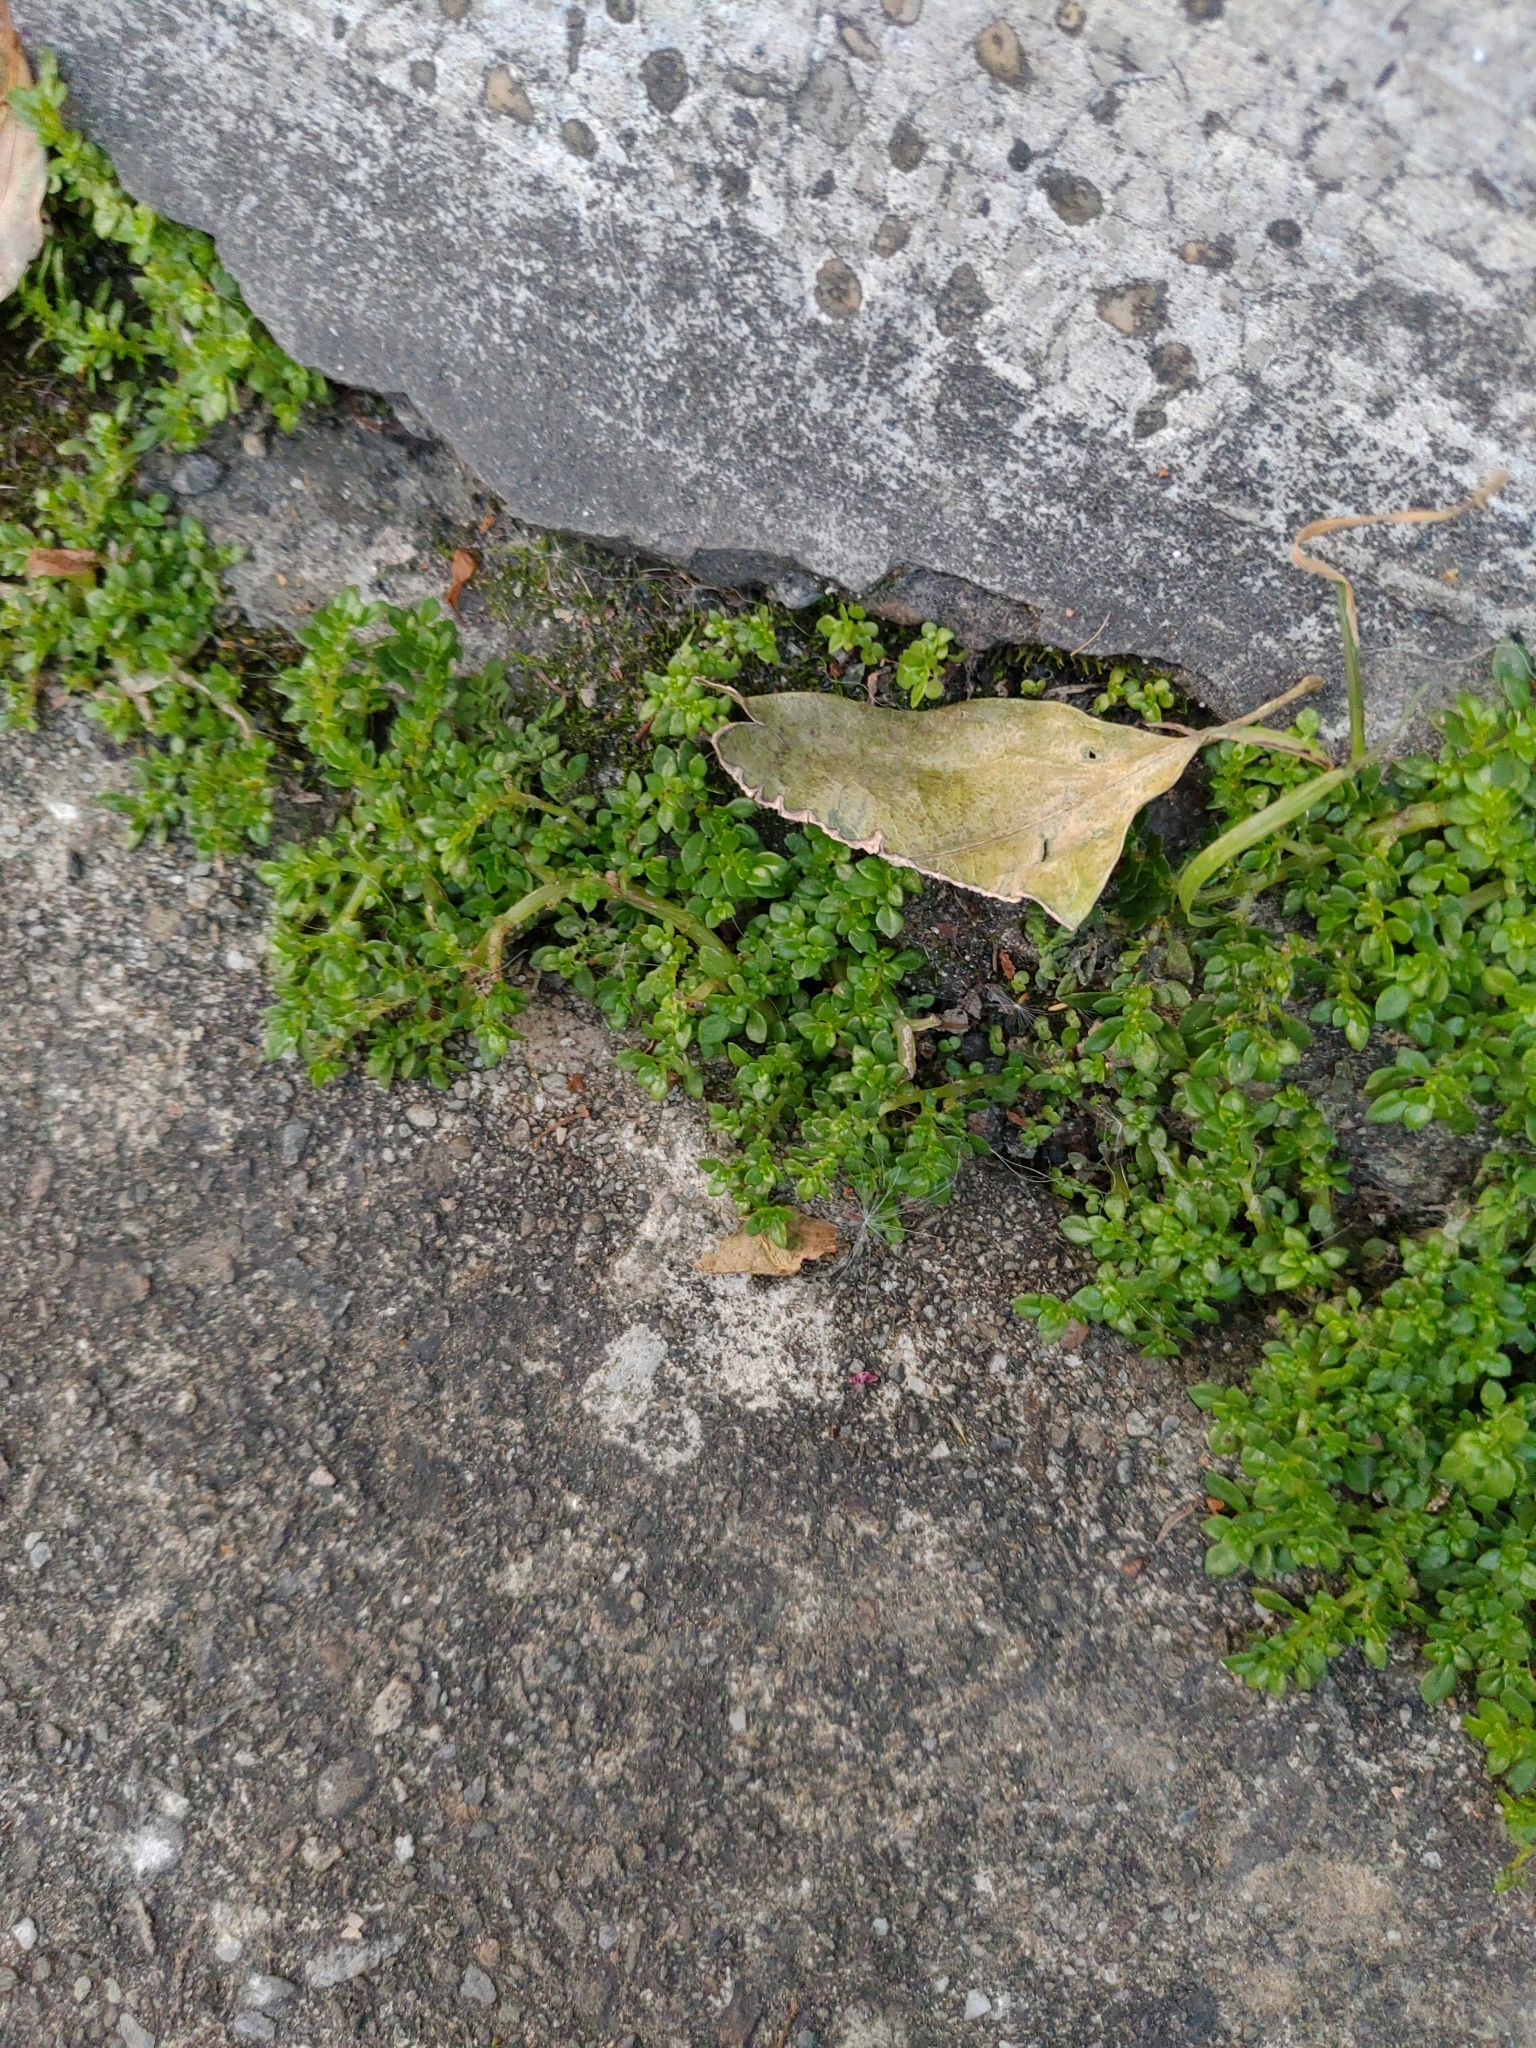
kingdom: Plantae
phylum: Tracheophyta
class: Magnoliopsida
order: Rosales
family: Urticaceae
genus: Pilea
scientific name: Pilea microphylla
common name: Artillery-plant
